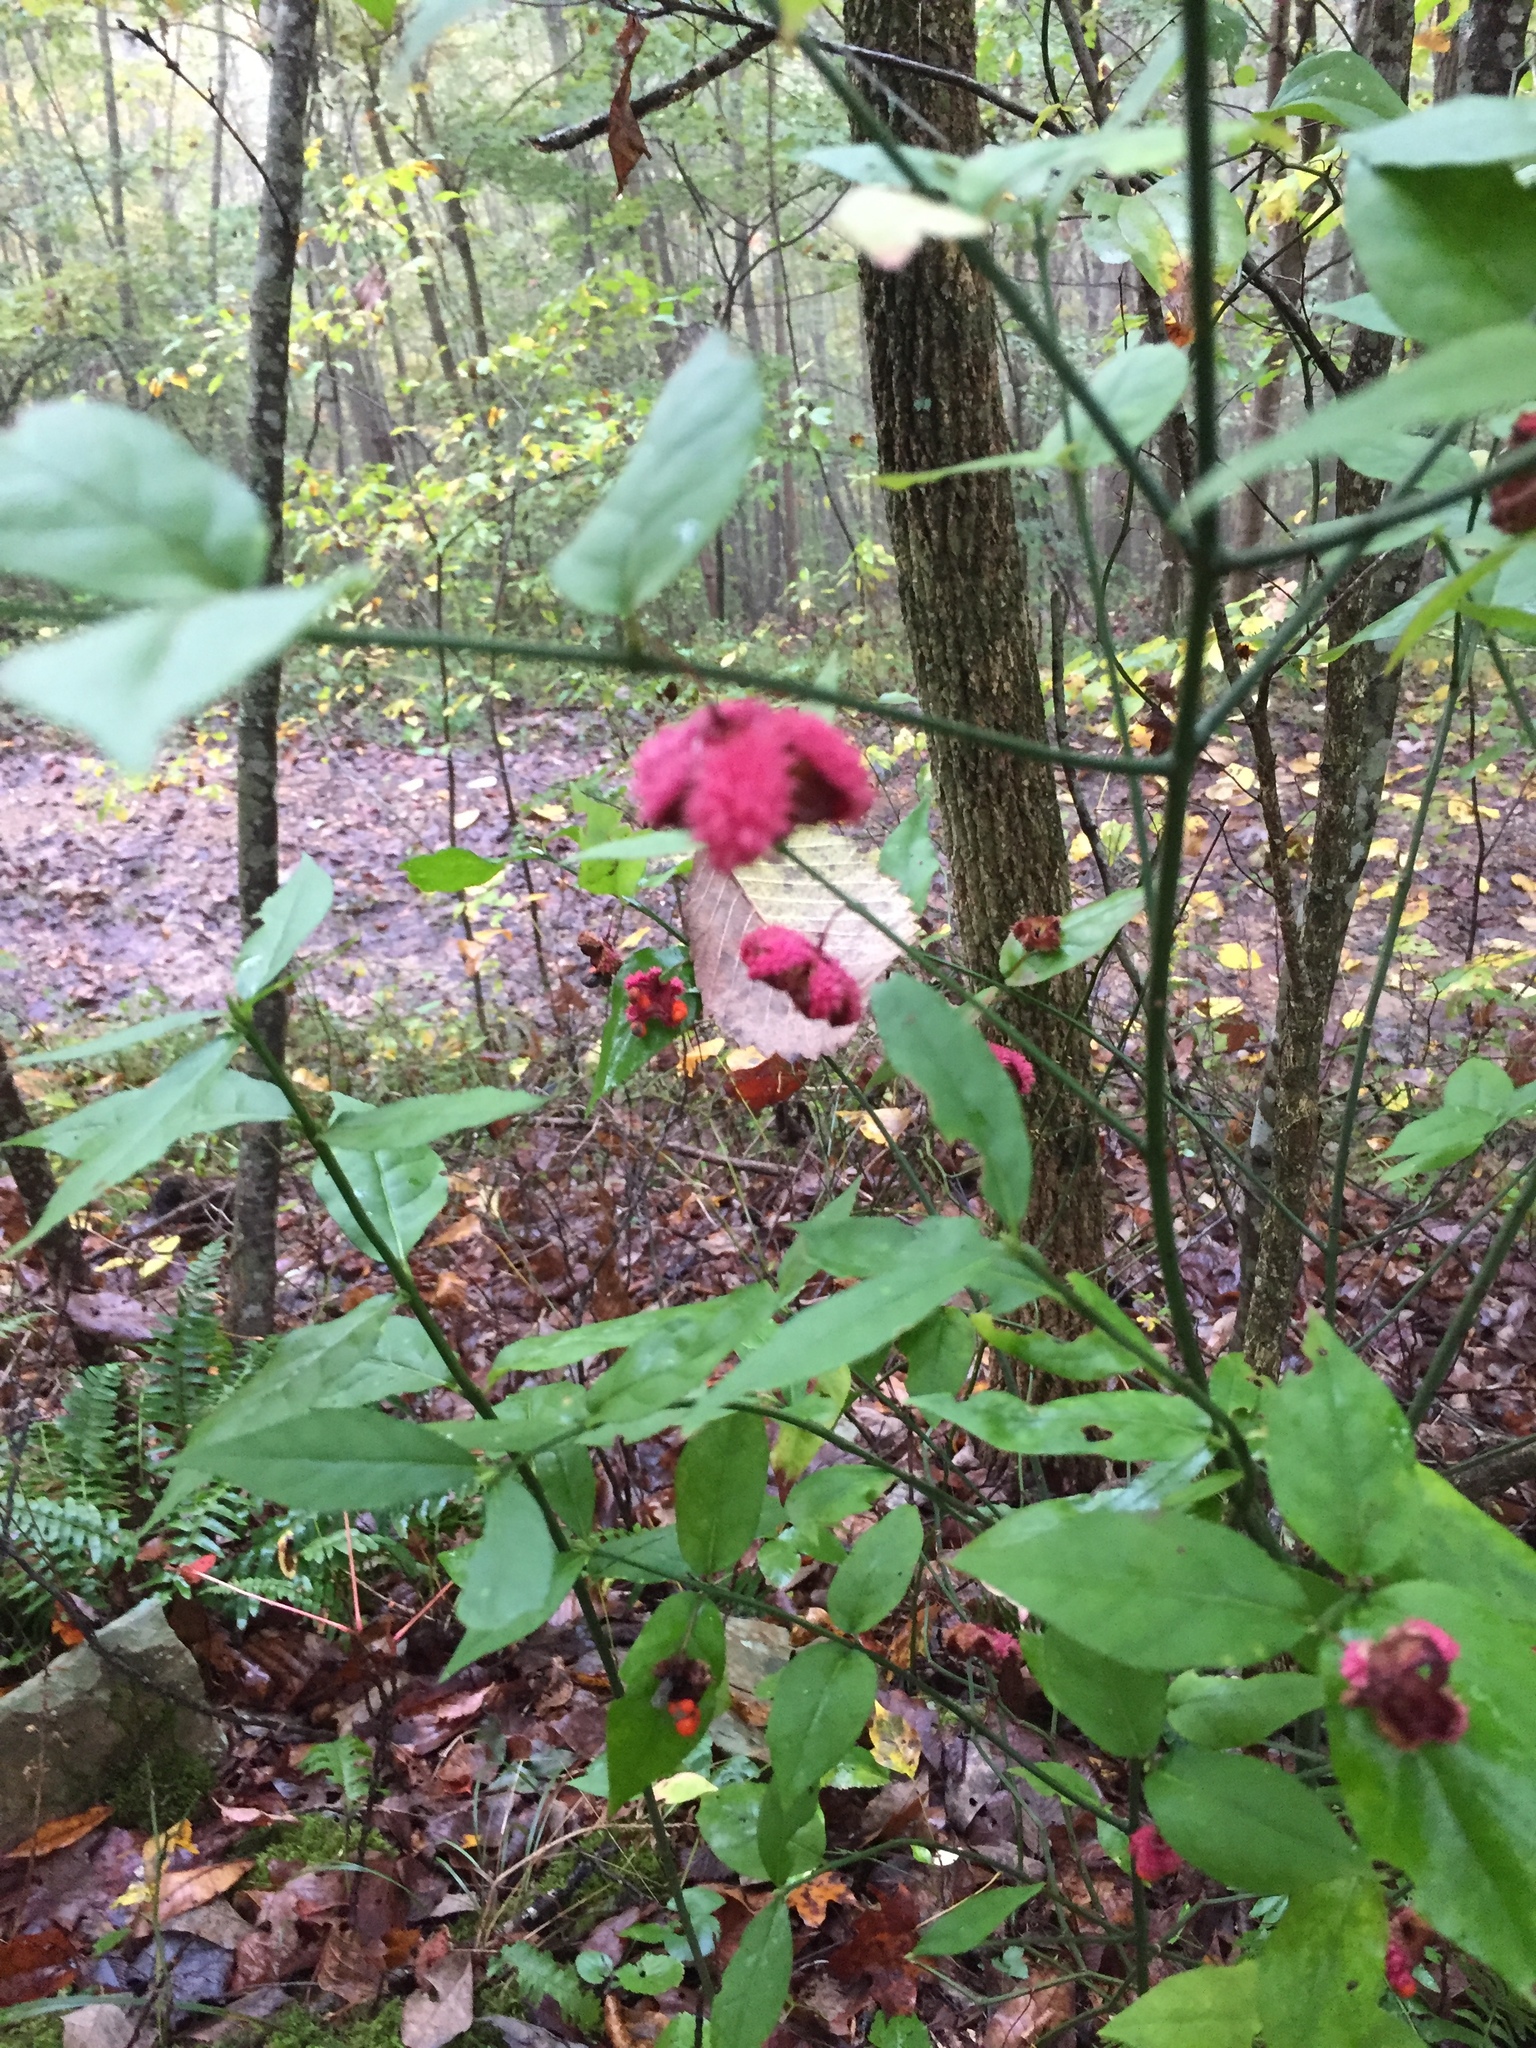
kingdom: Plantae
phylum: Tracheophyta
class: Magnoliopsida
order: Celastrales
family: Celastraceae
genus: Euonymus
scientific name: Euonymus americanus
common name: Bursting-heart
